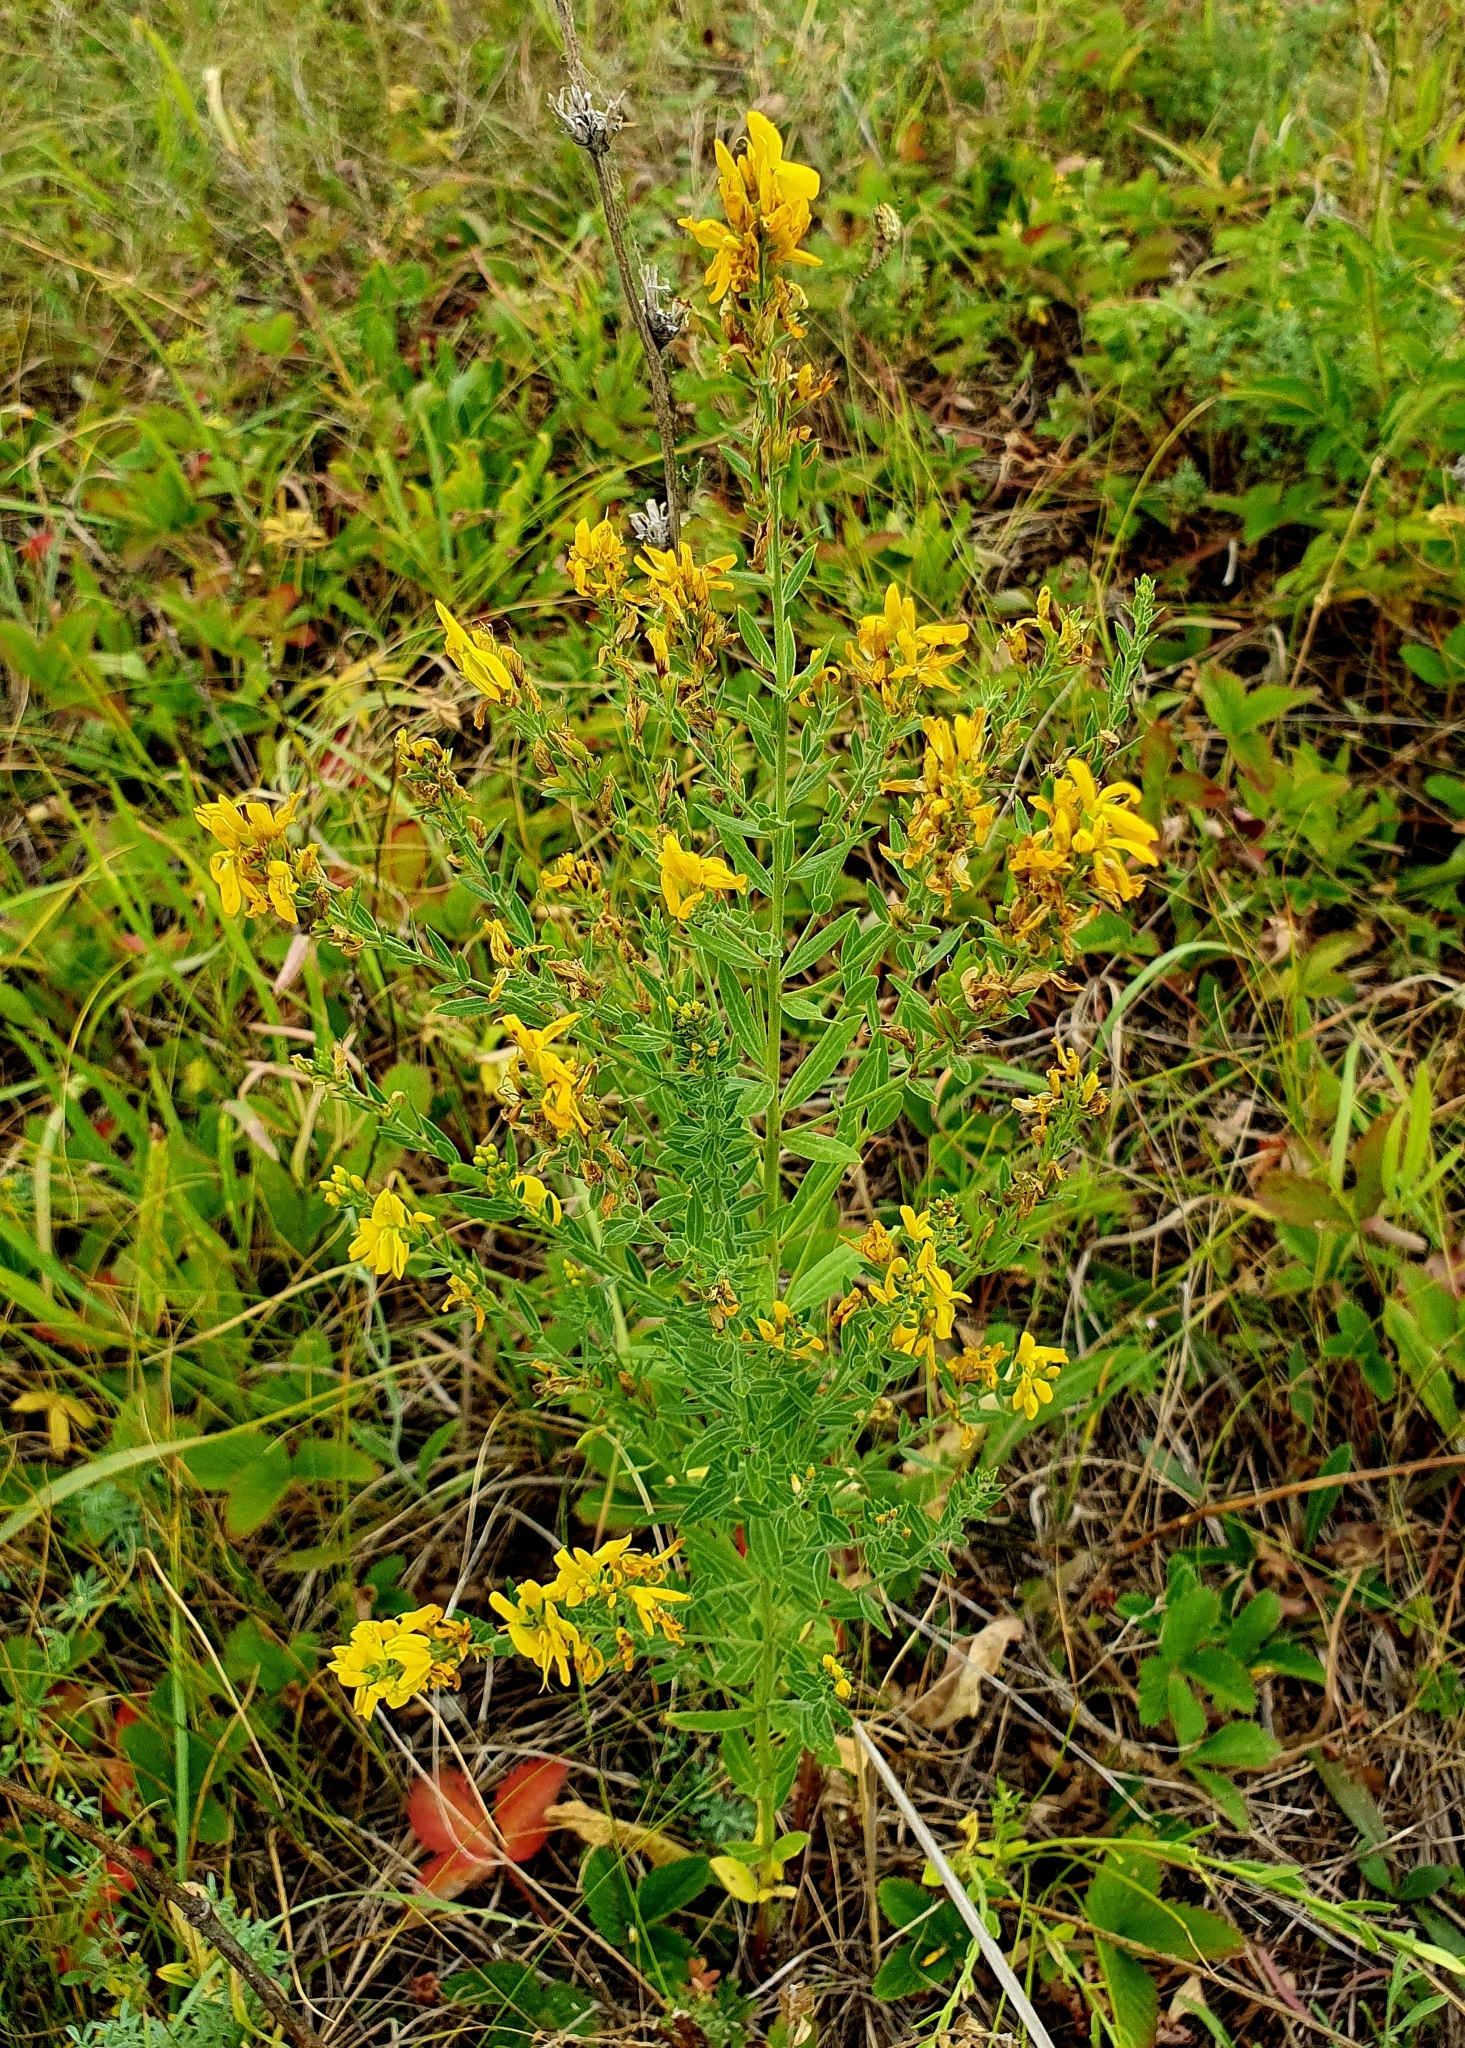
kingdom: Plantae
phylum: Tracheophyta
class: Magnoliopsida
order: Fabales
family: Fabaceae
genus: Genista
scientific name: Genista tinctoria
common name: Dyer's greenweed
